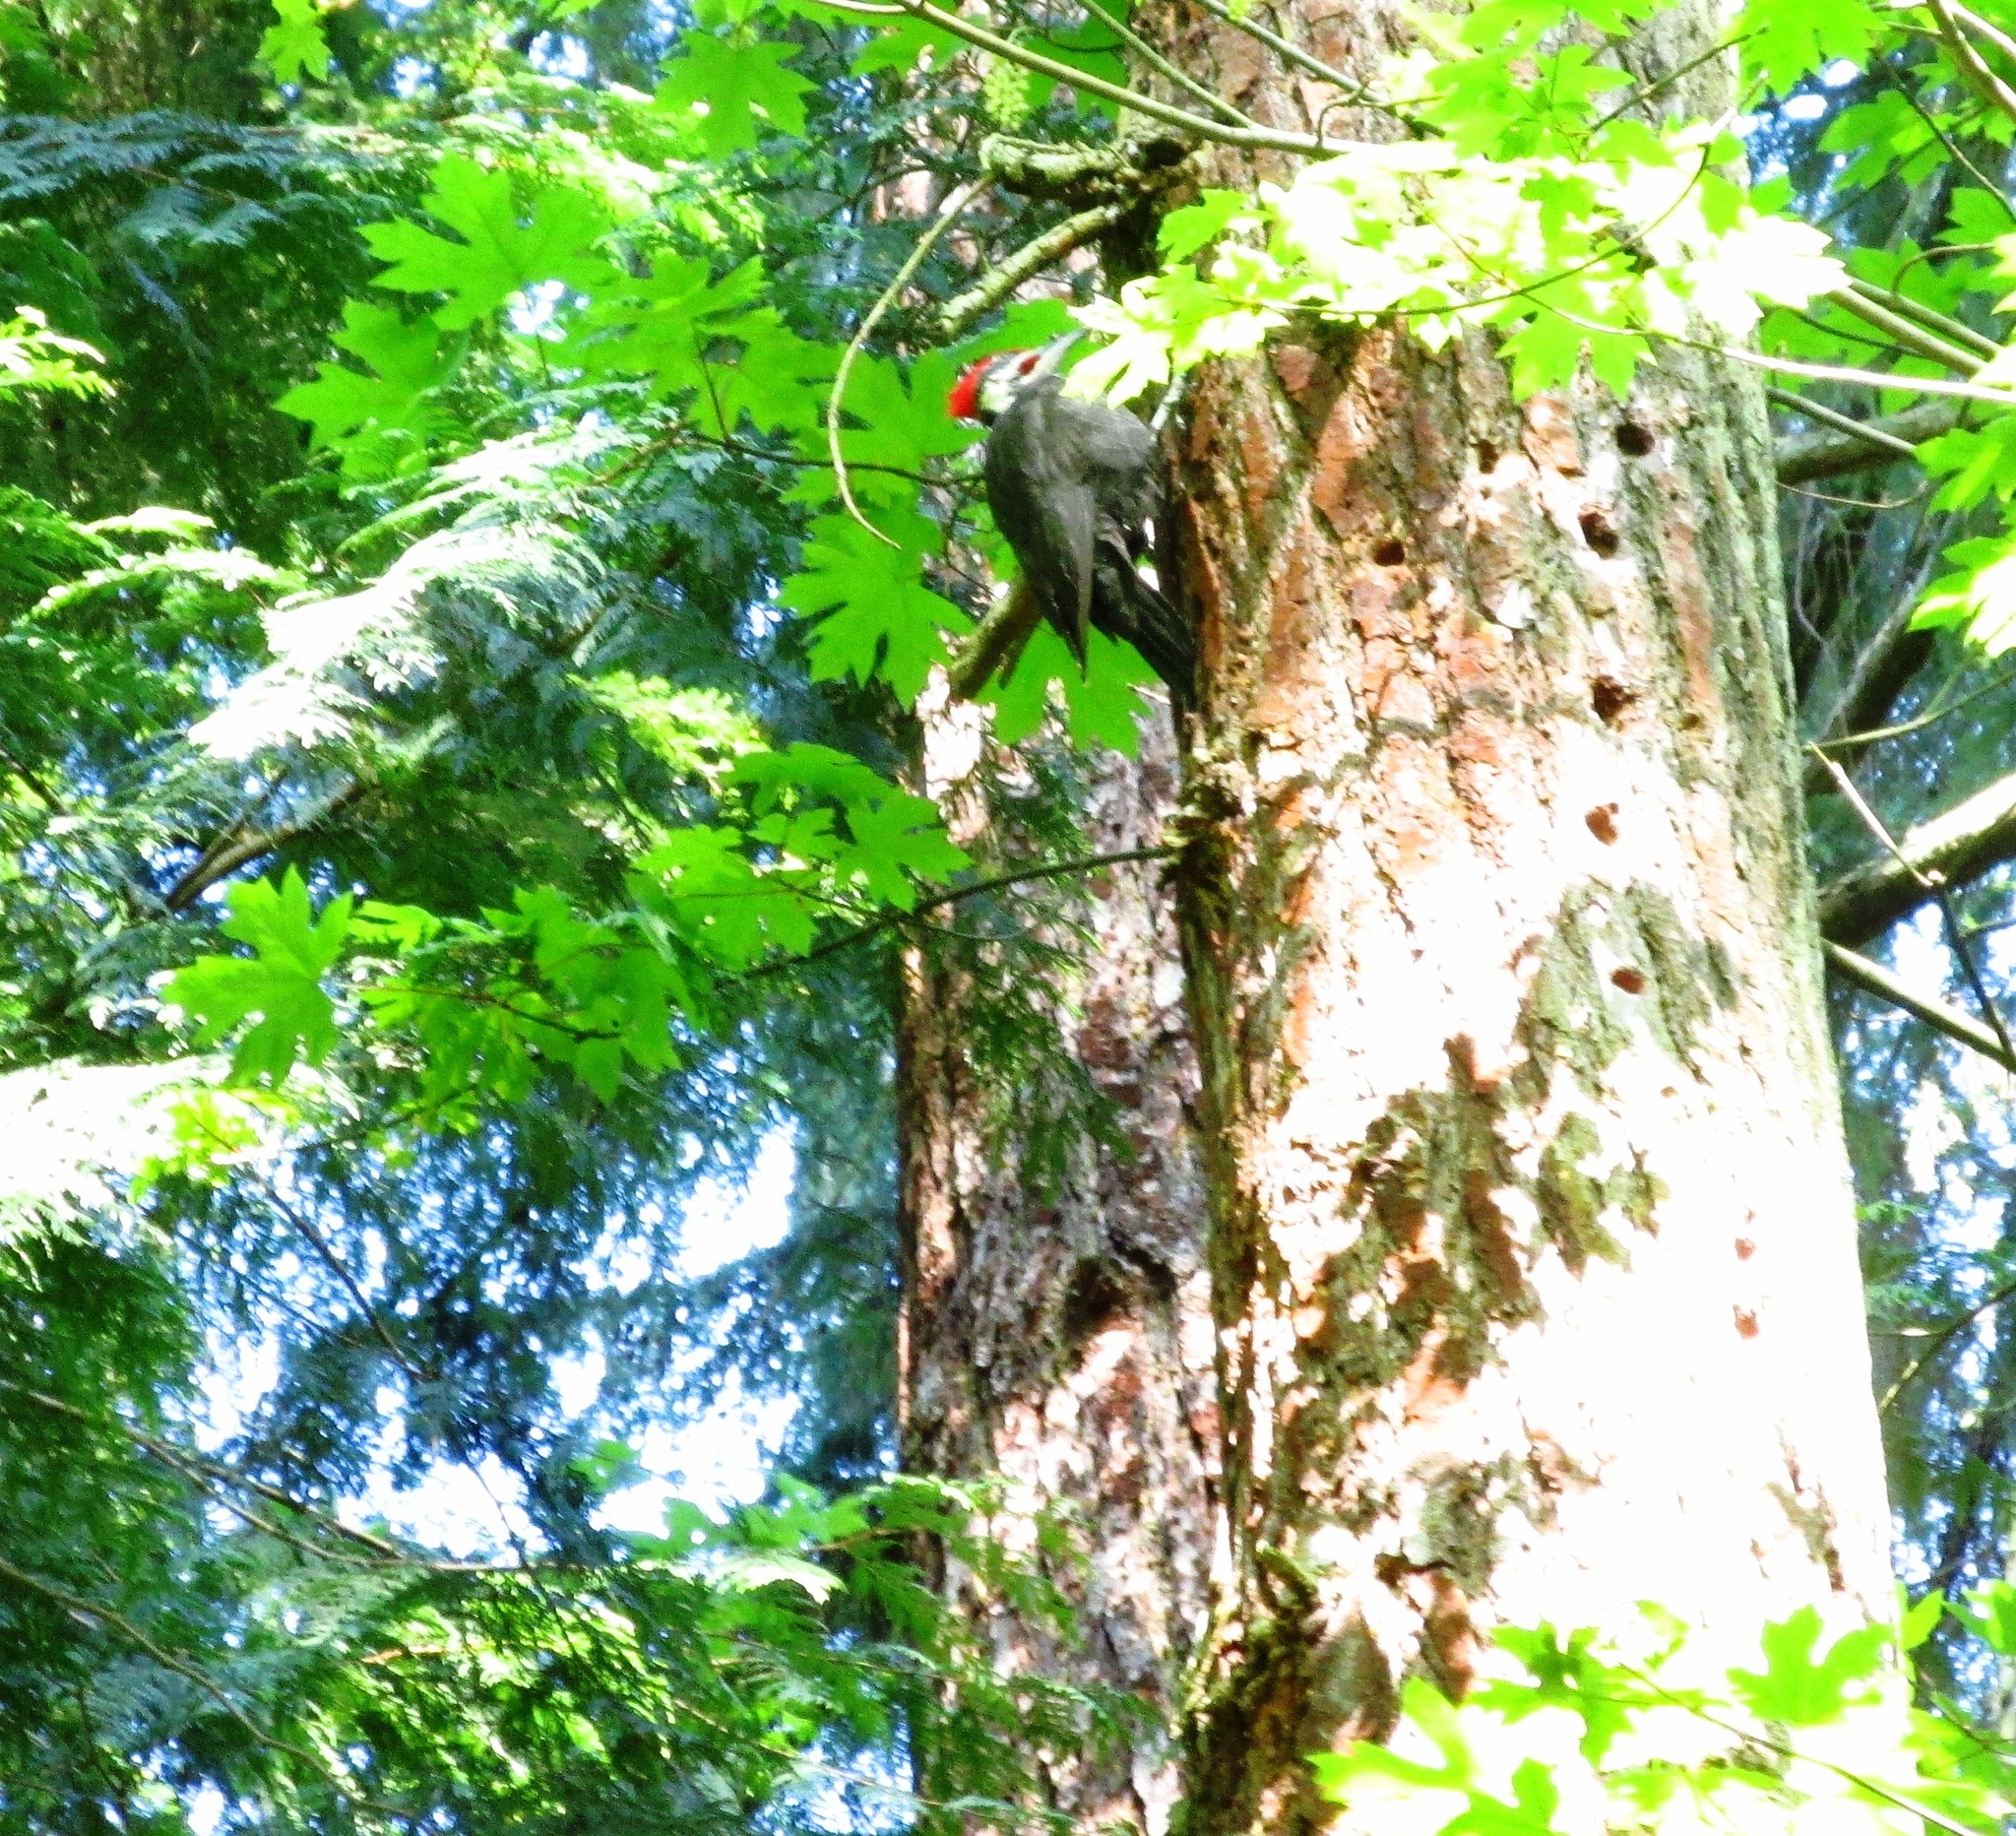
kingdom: Animalia
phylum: Chordata
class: Aves
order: Piciformes
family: Picidae
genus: Dryocopus
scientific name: Dryocopus pileatus
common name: Pileated woodpecker
